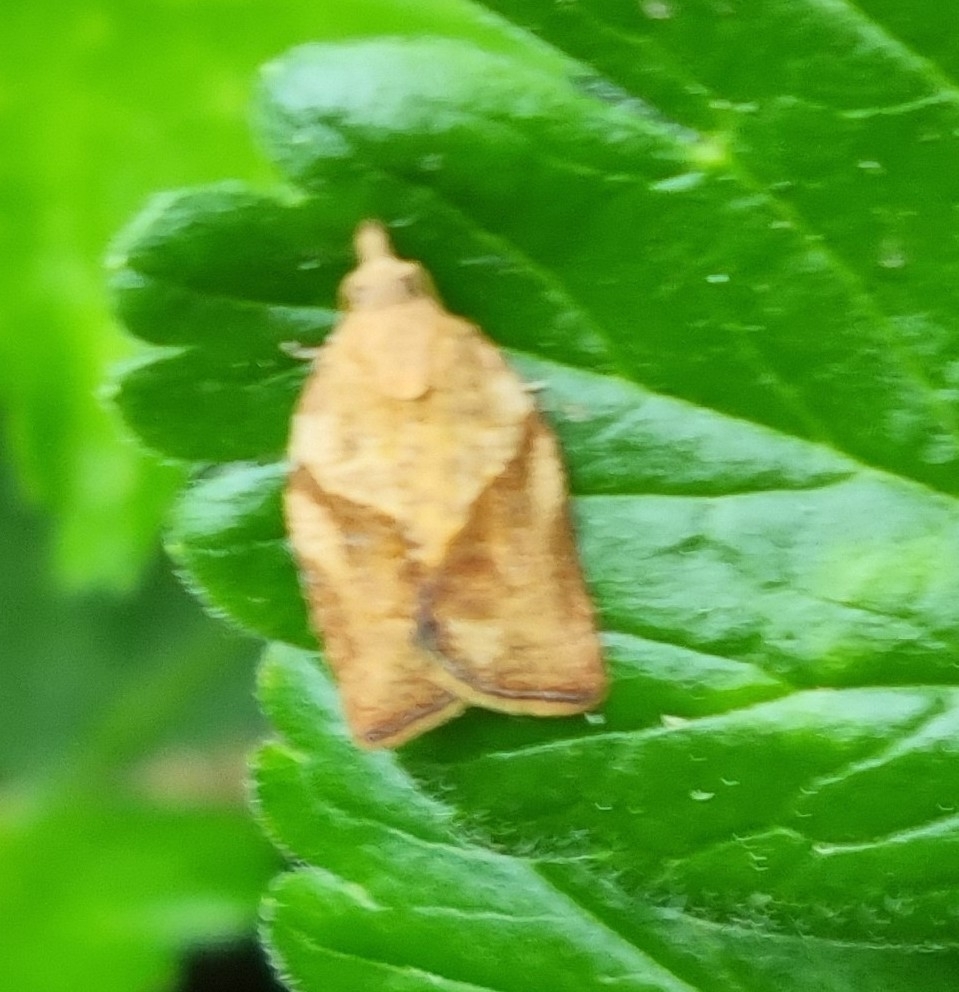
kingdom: Animalia
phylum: Arthropoda
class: Insecta
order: Lepidoptera
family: Tortricidae
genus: Epiphyas
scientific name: Epiphyas postvittana
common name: Light brown apple moth
